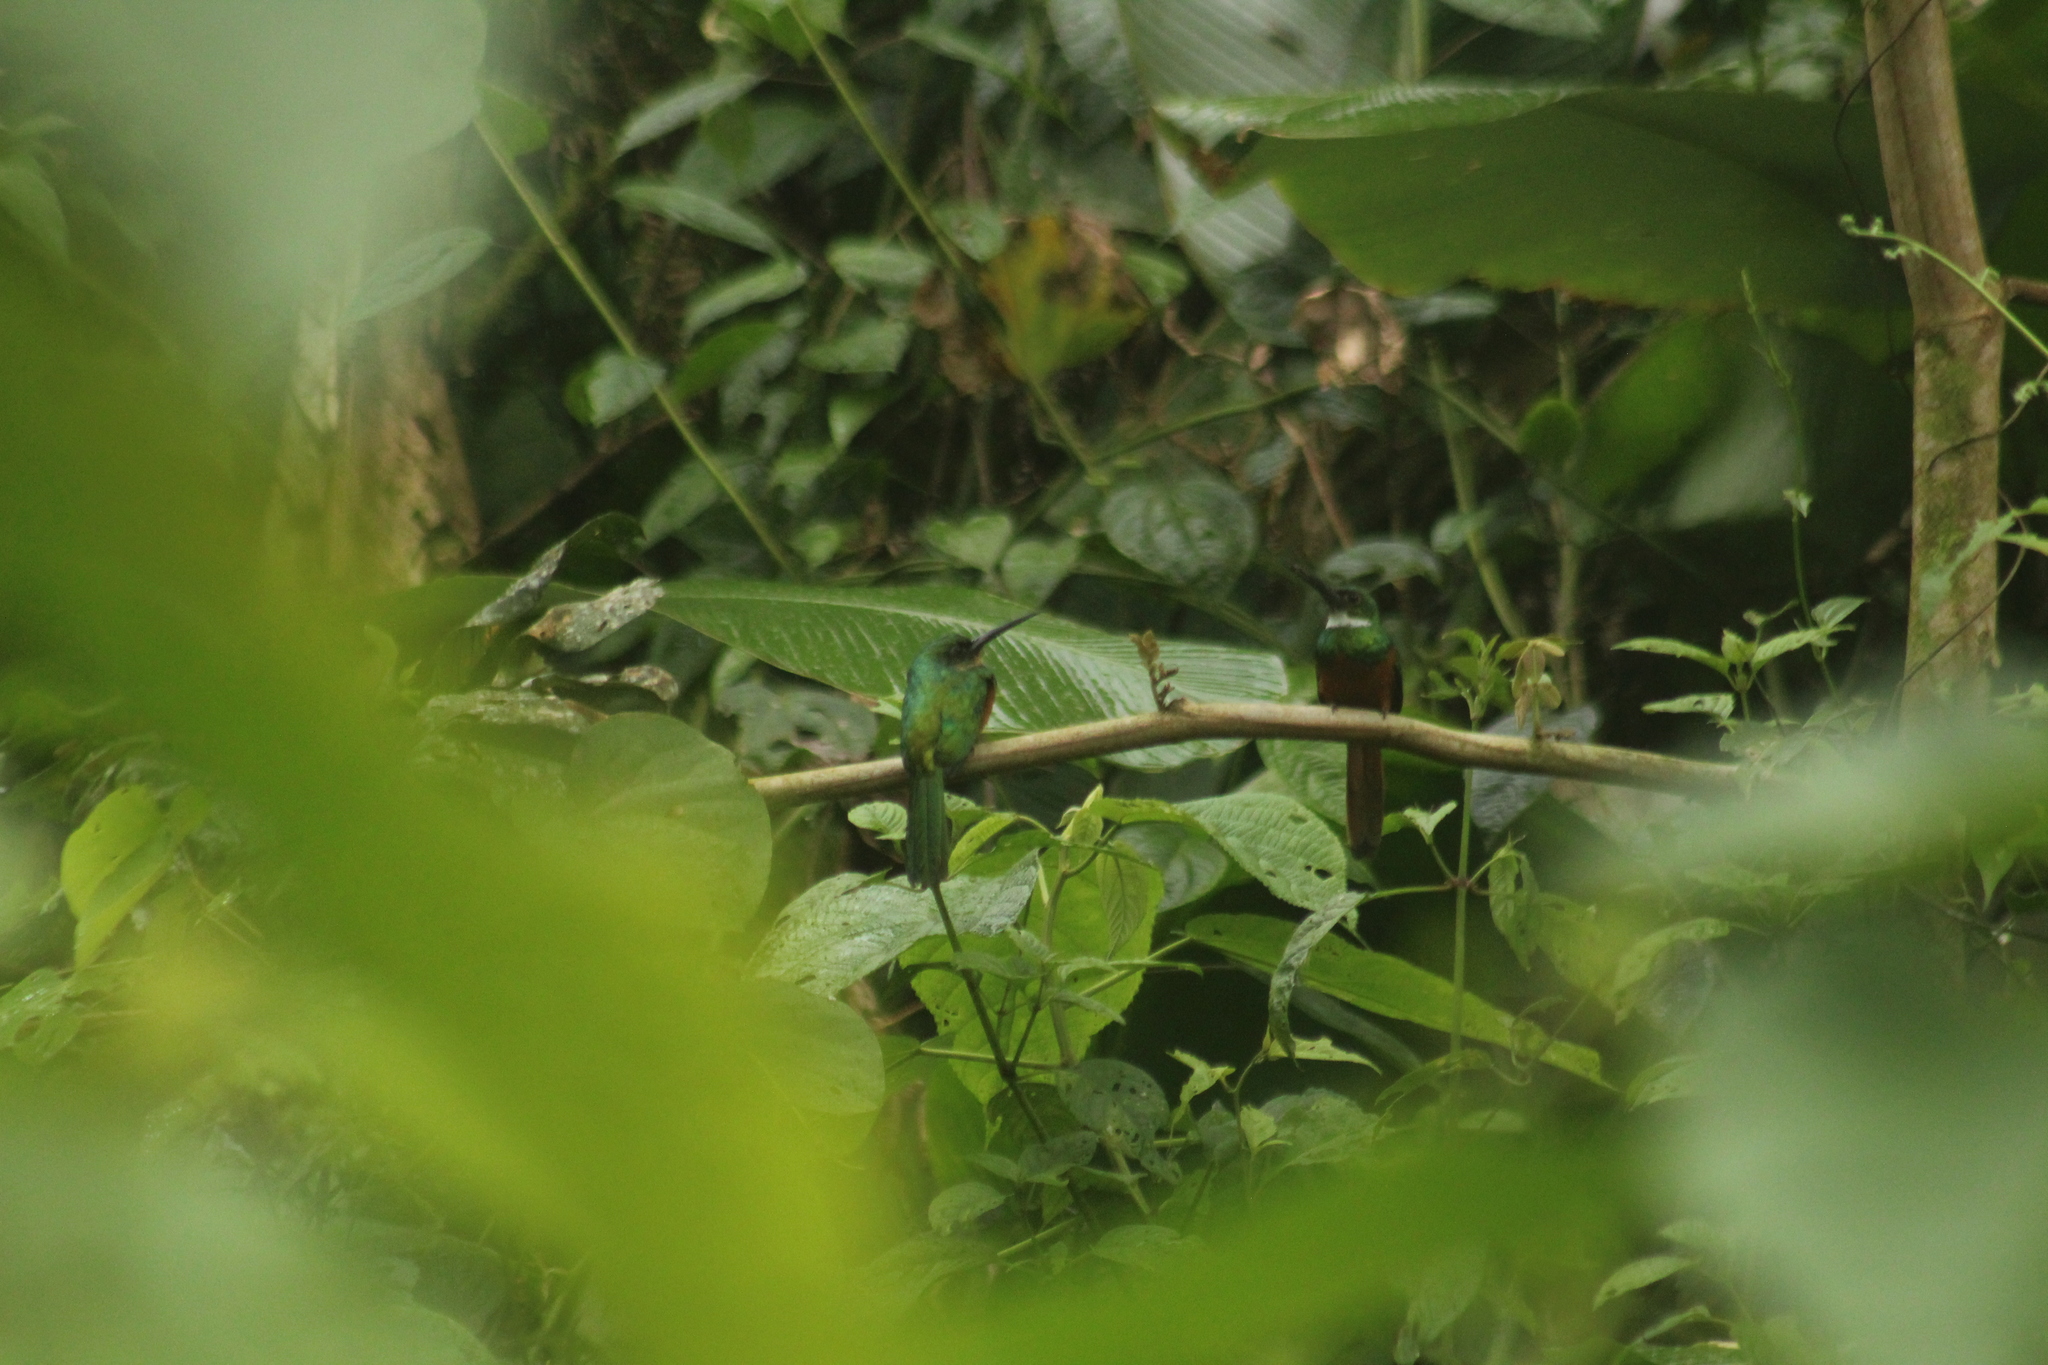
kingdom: Animalia
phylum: Chordata
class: Aves
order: Piciformes
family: Galbulidae
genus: Galbula
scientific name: Galbula ruficauda
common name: Rufous-tailed jacamar
